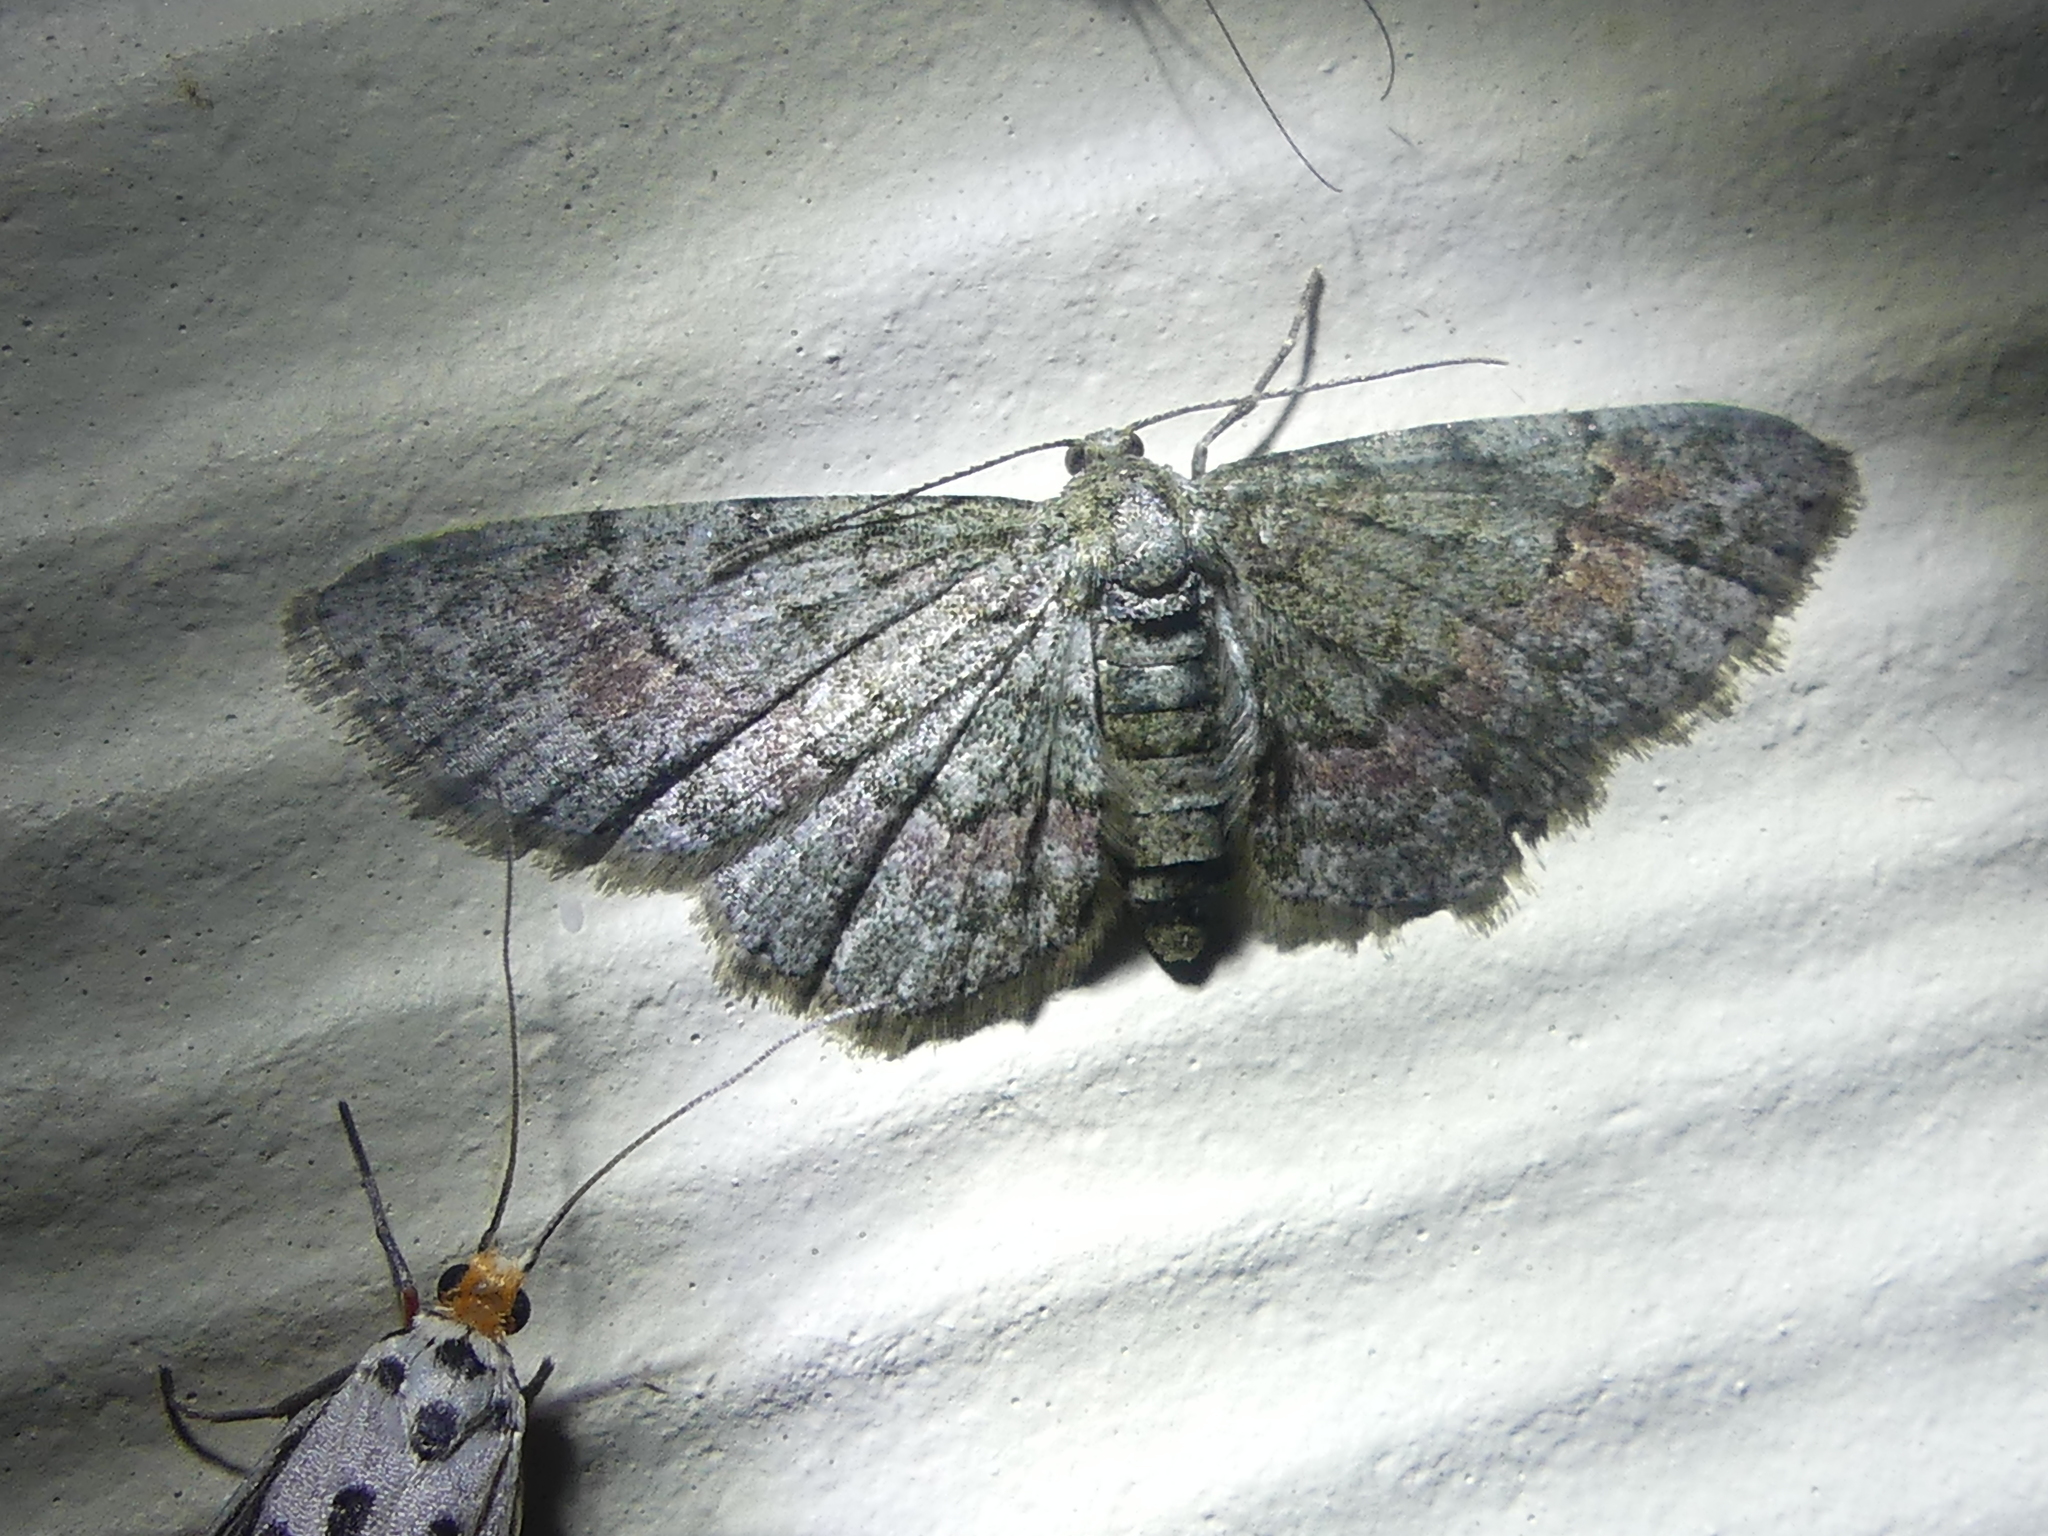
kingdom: Animalia
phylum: Arthropoda
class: Insecta
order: Lepidoptera
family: Geometridae
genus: Glenoides
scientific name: Glenoides texanaria
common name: Texas gray
